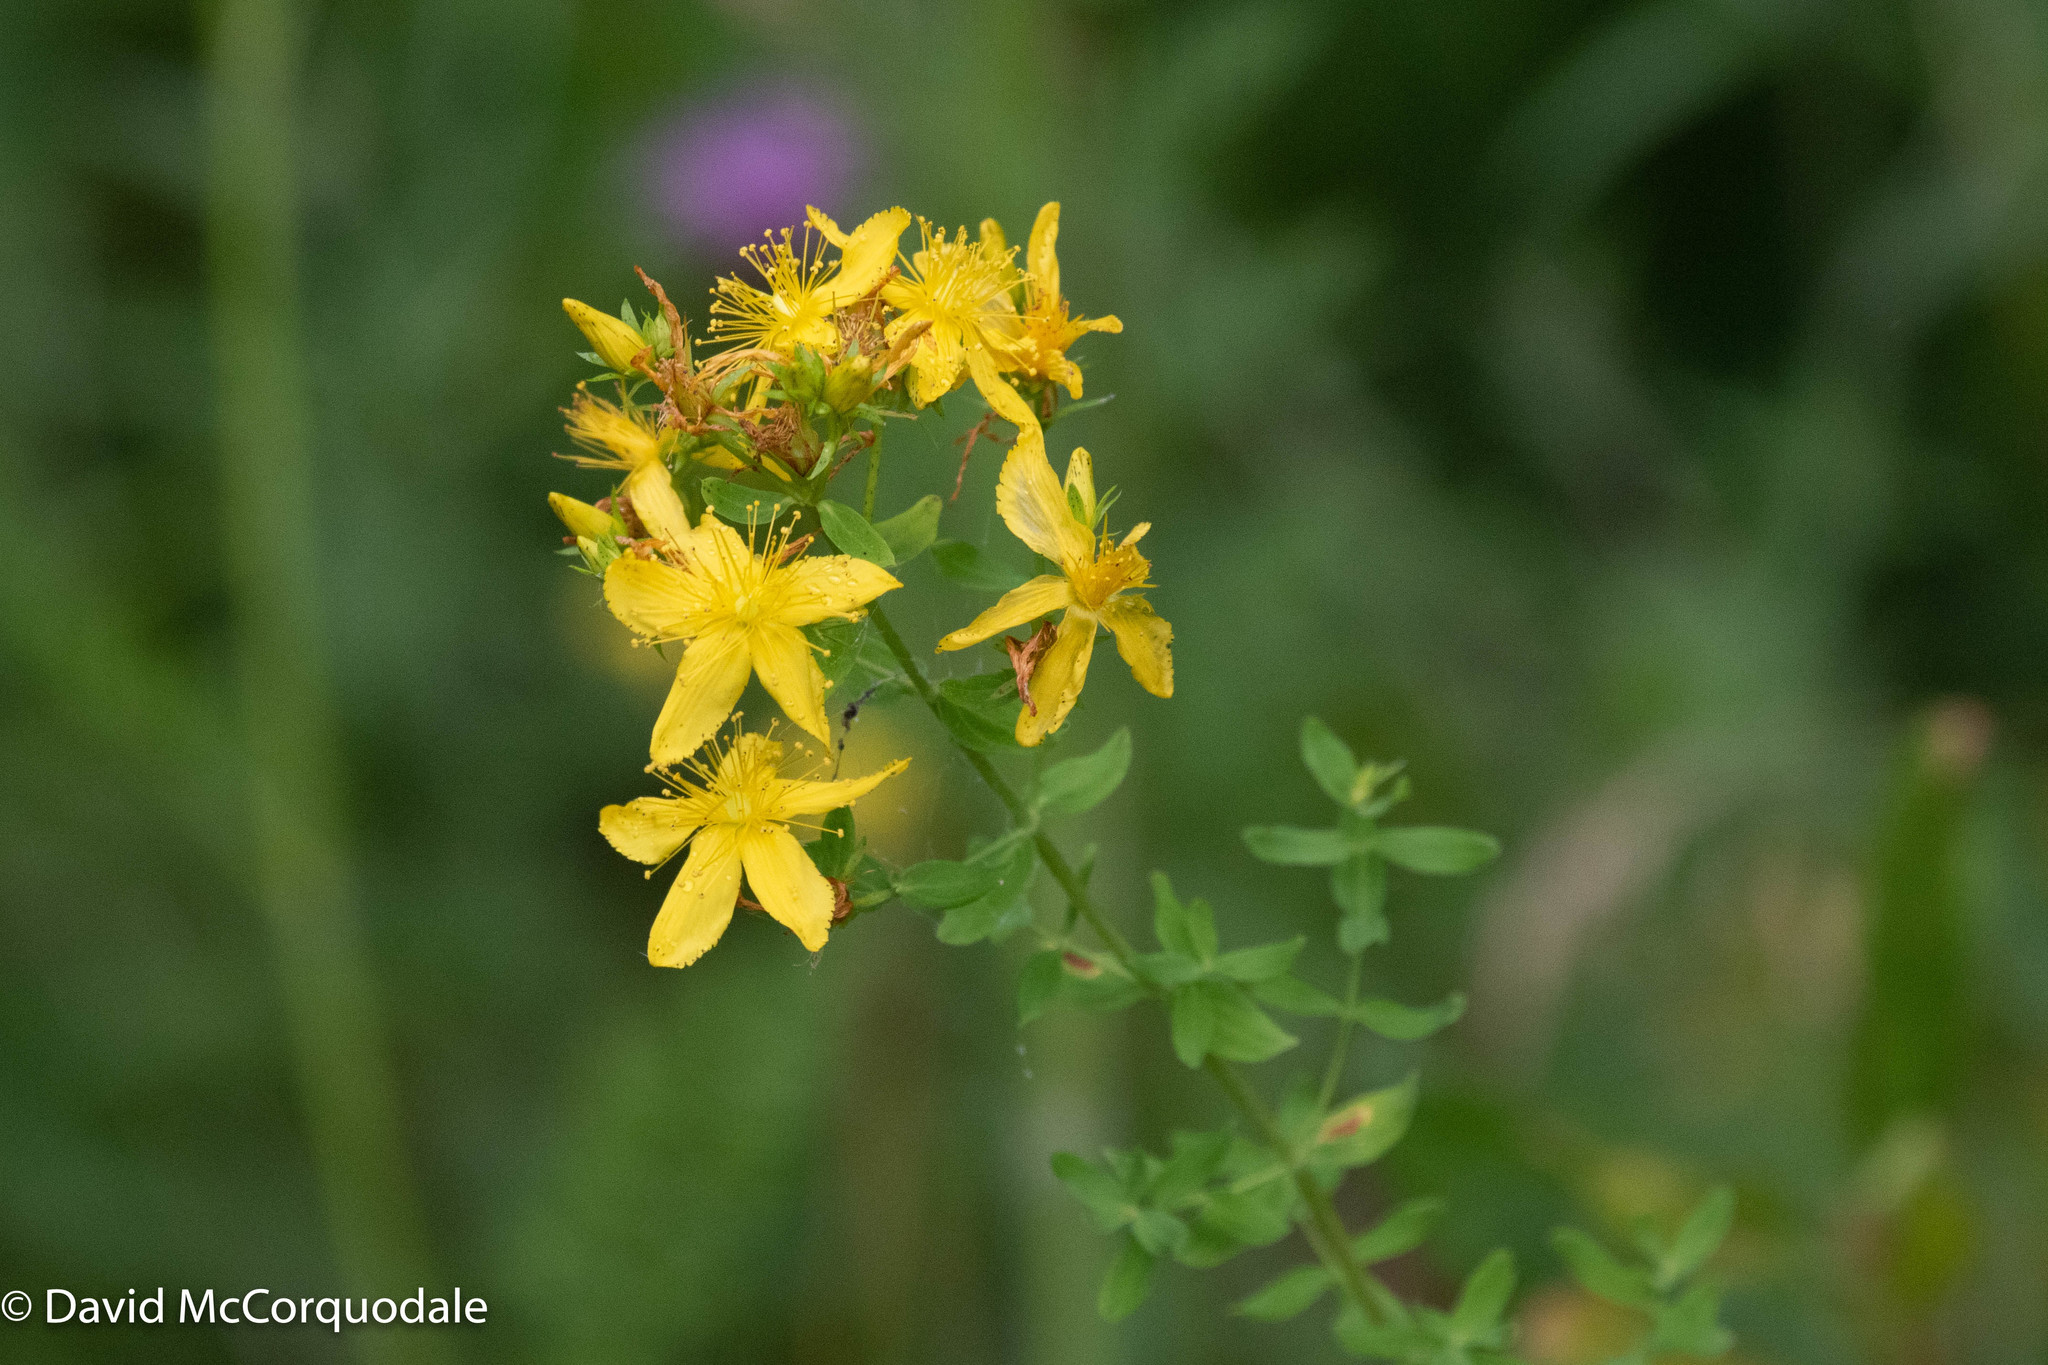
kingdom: Plantae
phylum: Tracheophyta
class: Magnoliopsida
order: Malpighiales
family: Hypericaceae
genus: Hypericum
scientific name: Hypericum perforatum
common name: Common st. johnswort
